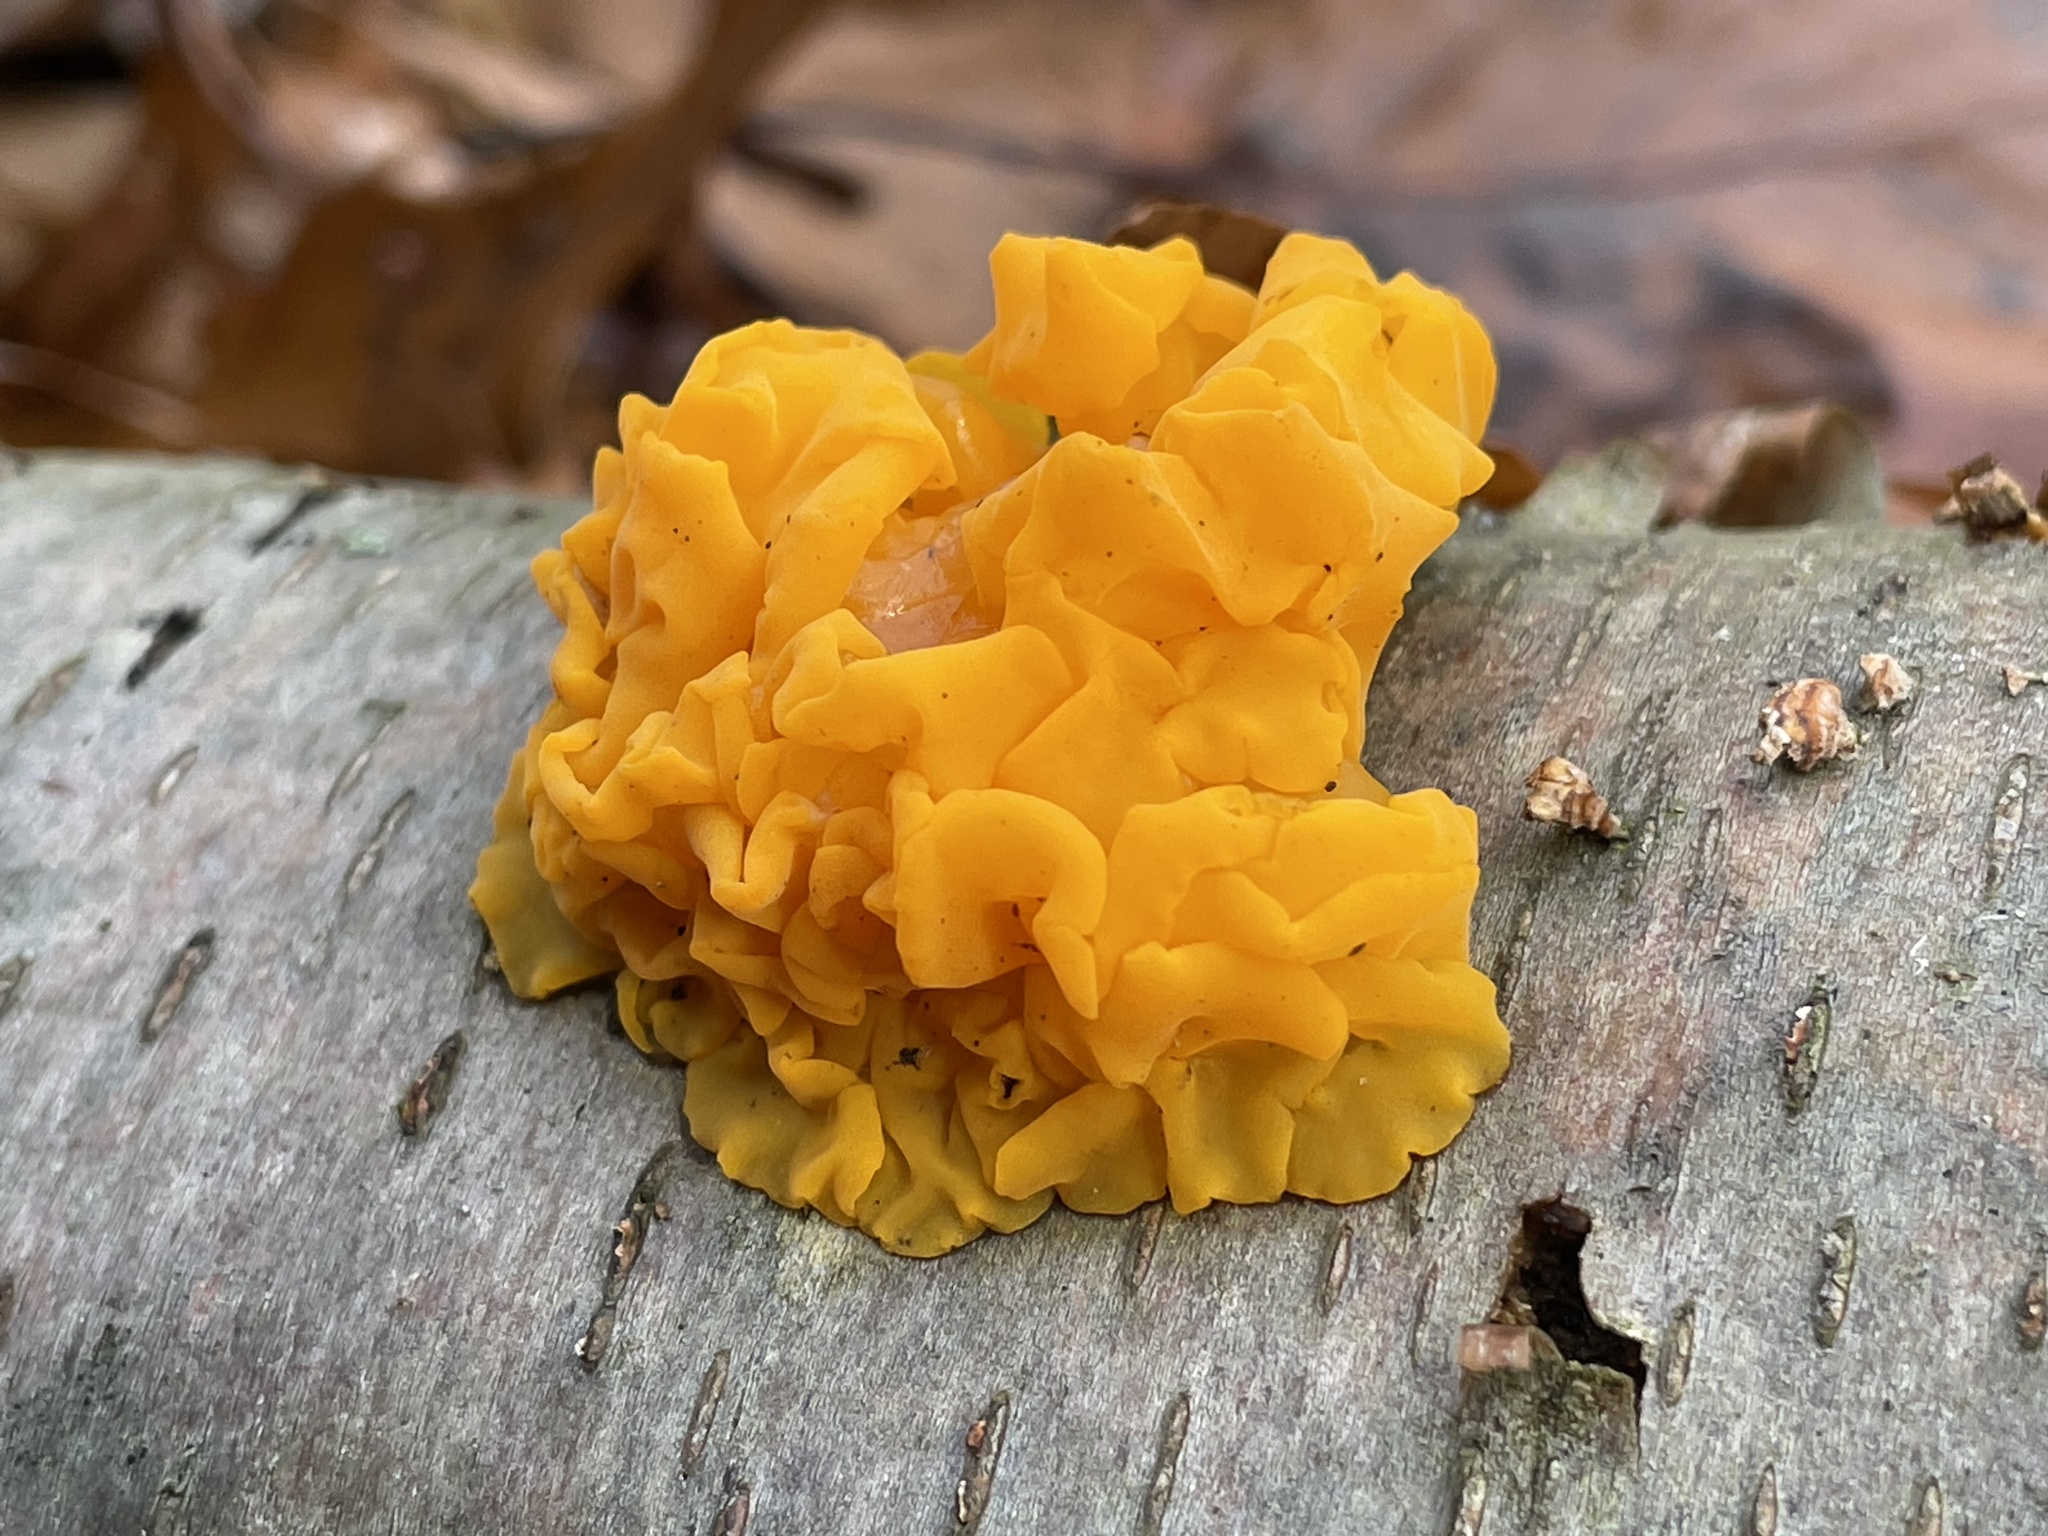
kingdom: Fungi
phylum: Basidiomycota
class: Tremellomycetes
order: Tremellales
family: Tremellaceae
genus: Tremella
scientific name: Tremella mesenterica
